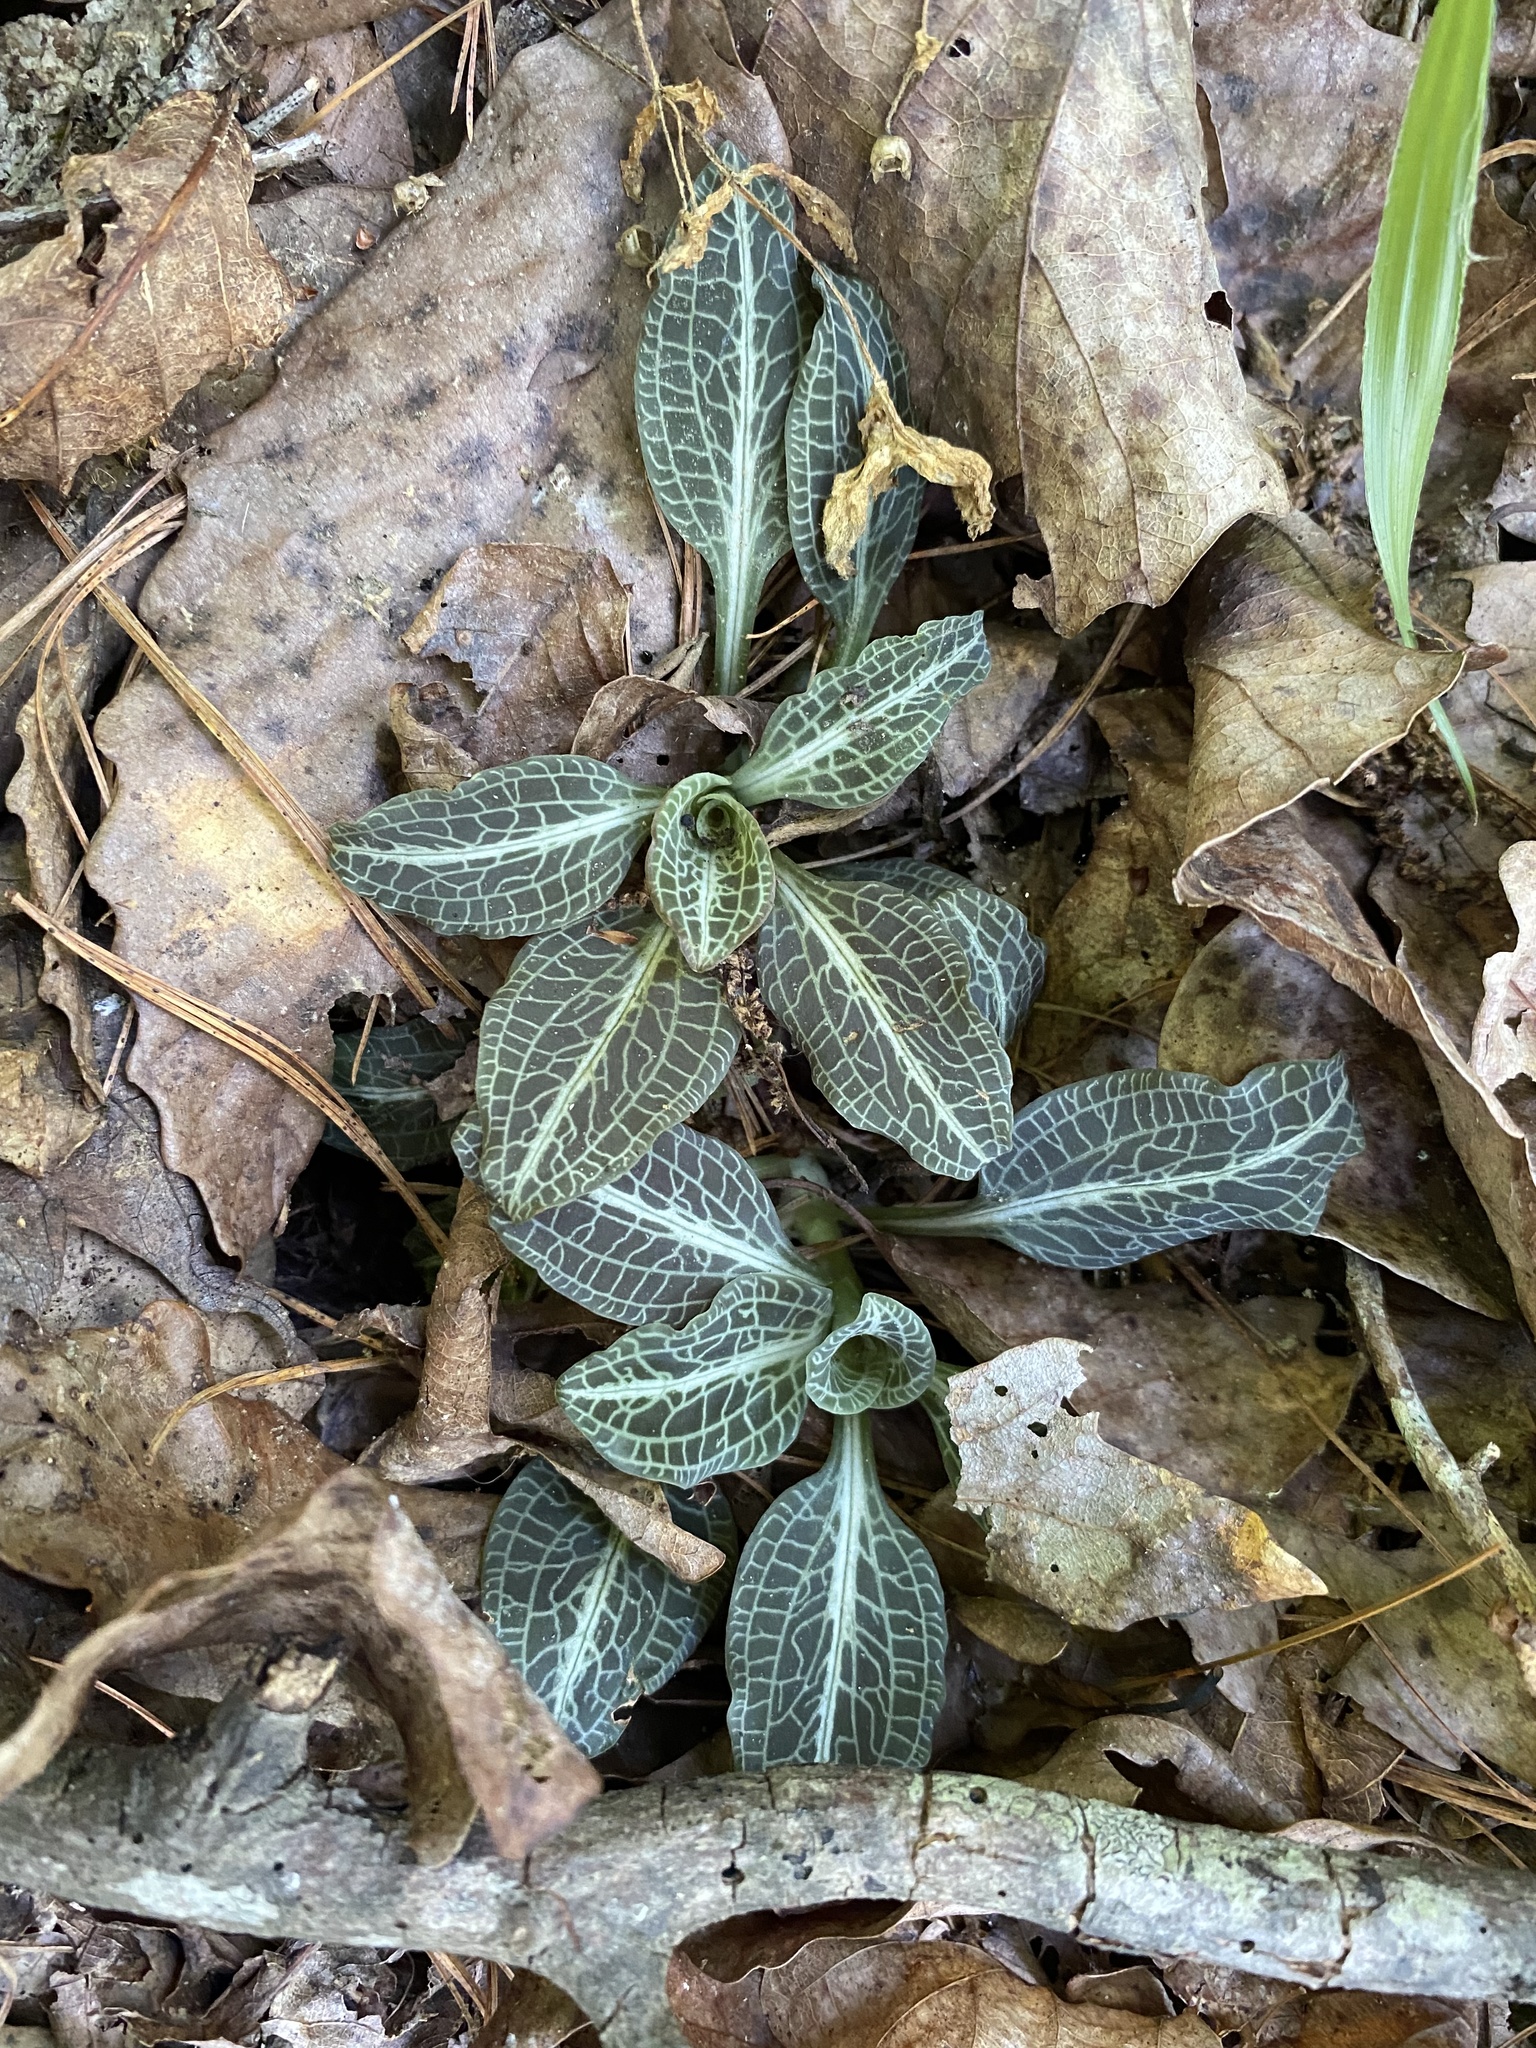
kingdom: Plantae
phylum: Tracheophyta
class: Liliopsida
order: Asparagales
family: Orchidaceae
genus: Goodyera
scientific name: Goodyera pubescens
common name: Downy rattlesnake-plantain
